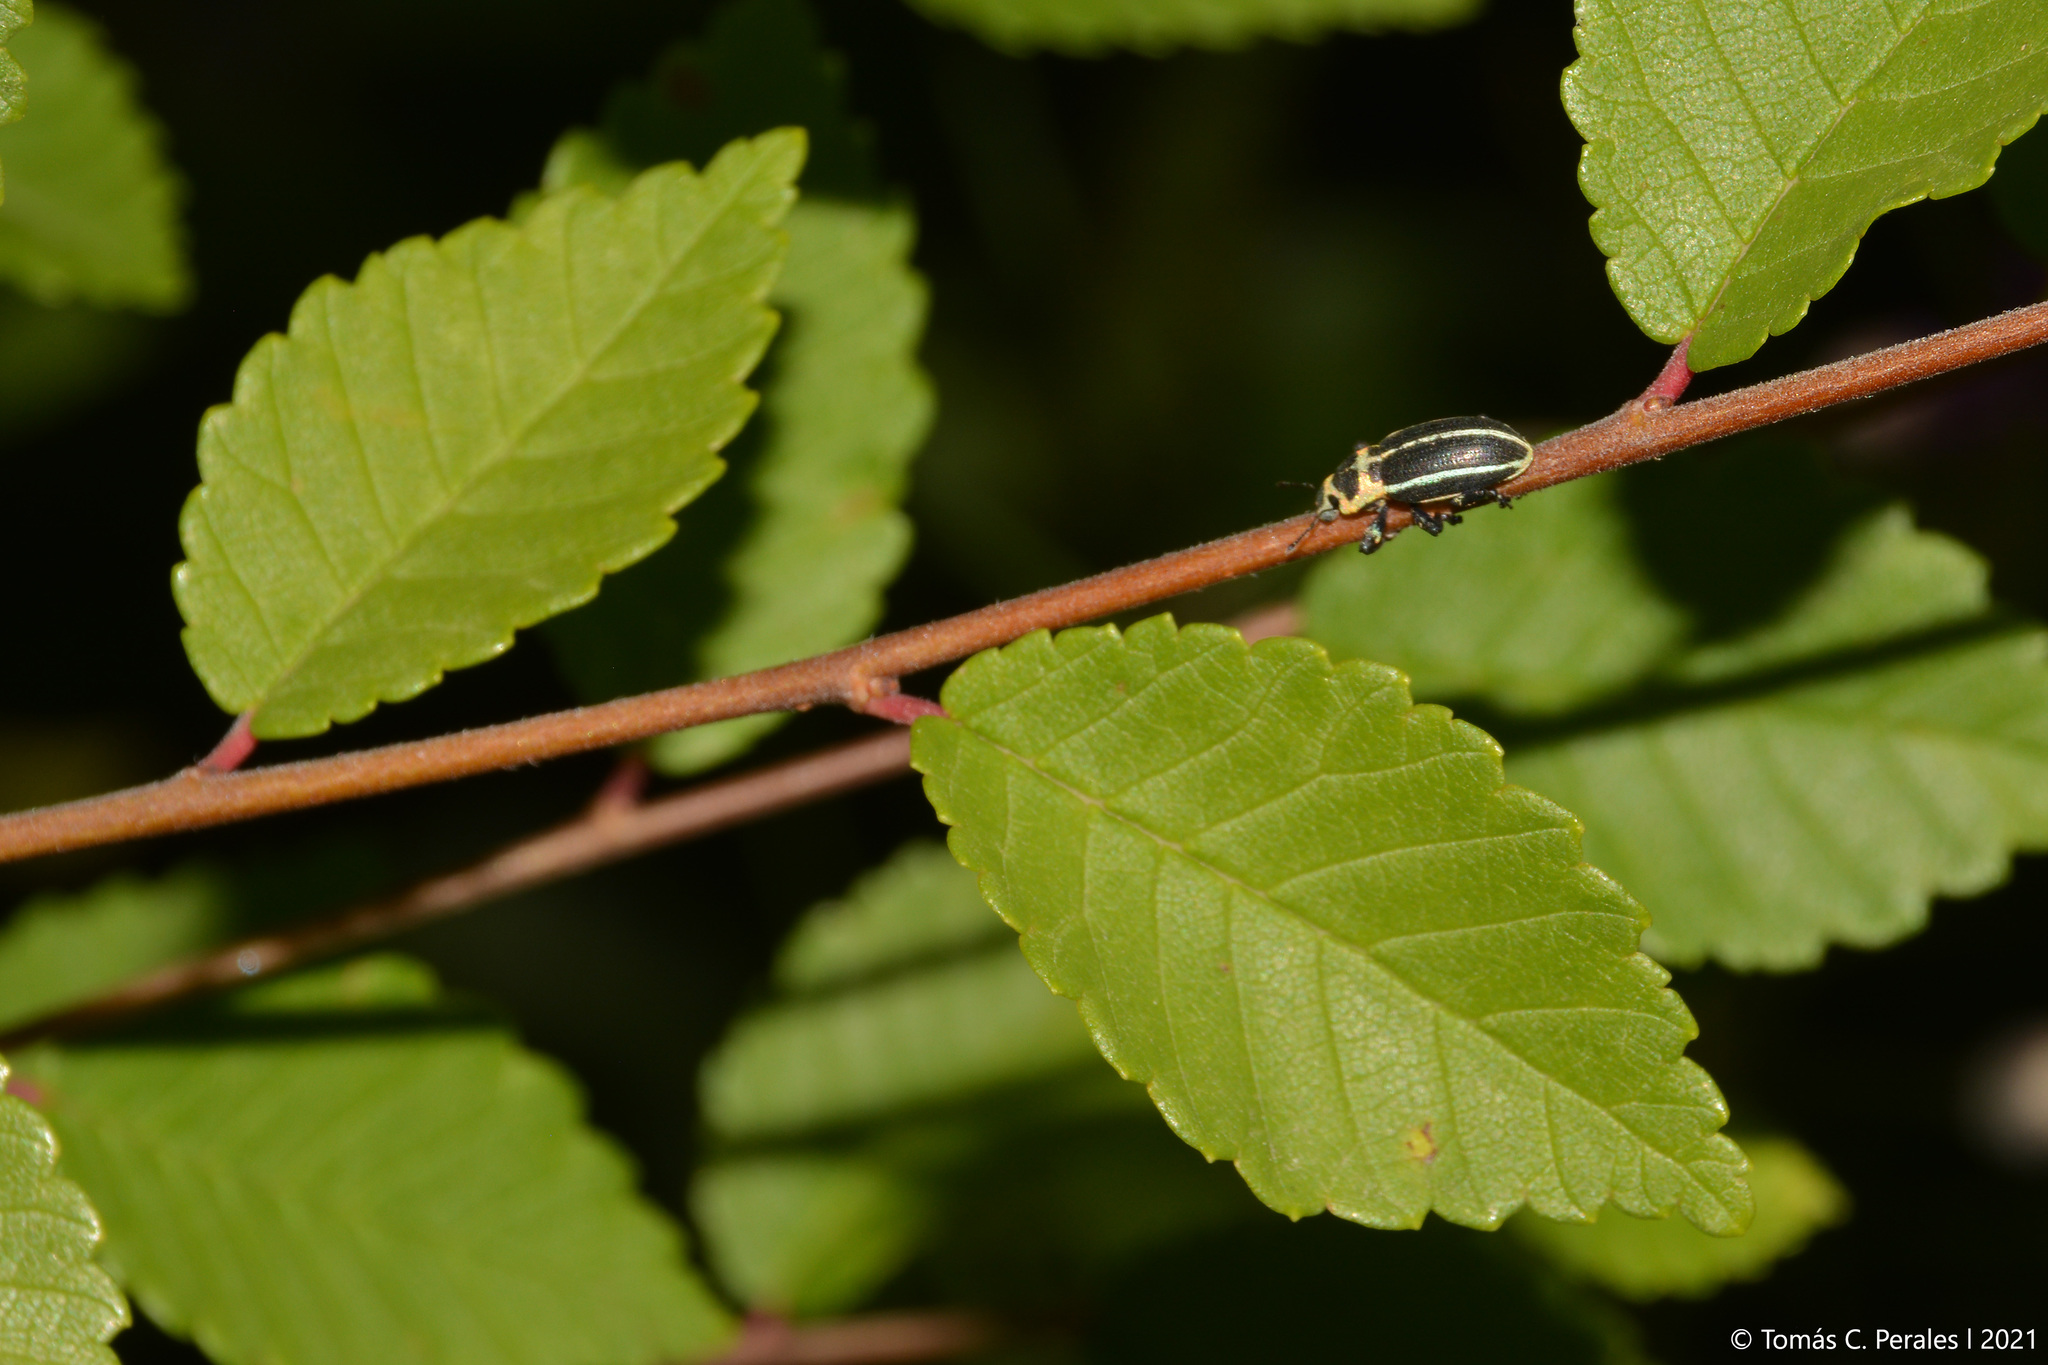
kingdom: Animalia
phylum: Arthropoda
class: Insecta
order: Coleoptera
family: Curculionidae
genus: Eudiagogus
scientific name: Eudiagogus episcopalis
